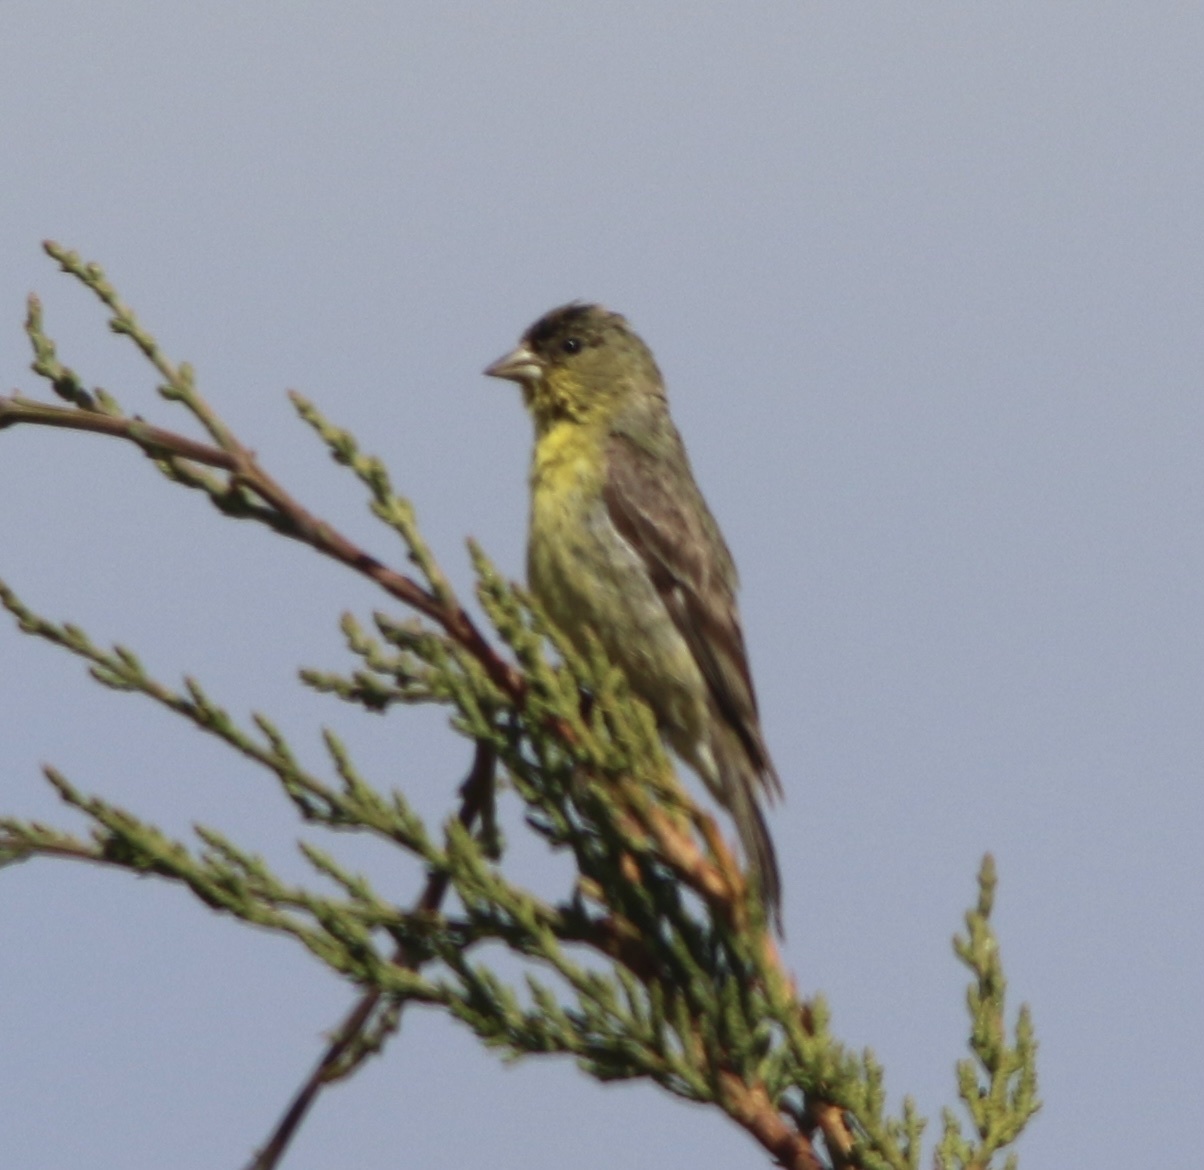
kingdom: Animalia
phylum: Chordata
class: Aves
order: Passeriformes
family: Fringillidae
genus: Spinus
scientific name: Spinus psaltria
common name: Lesser goldfinch
